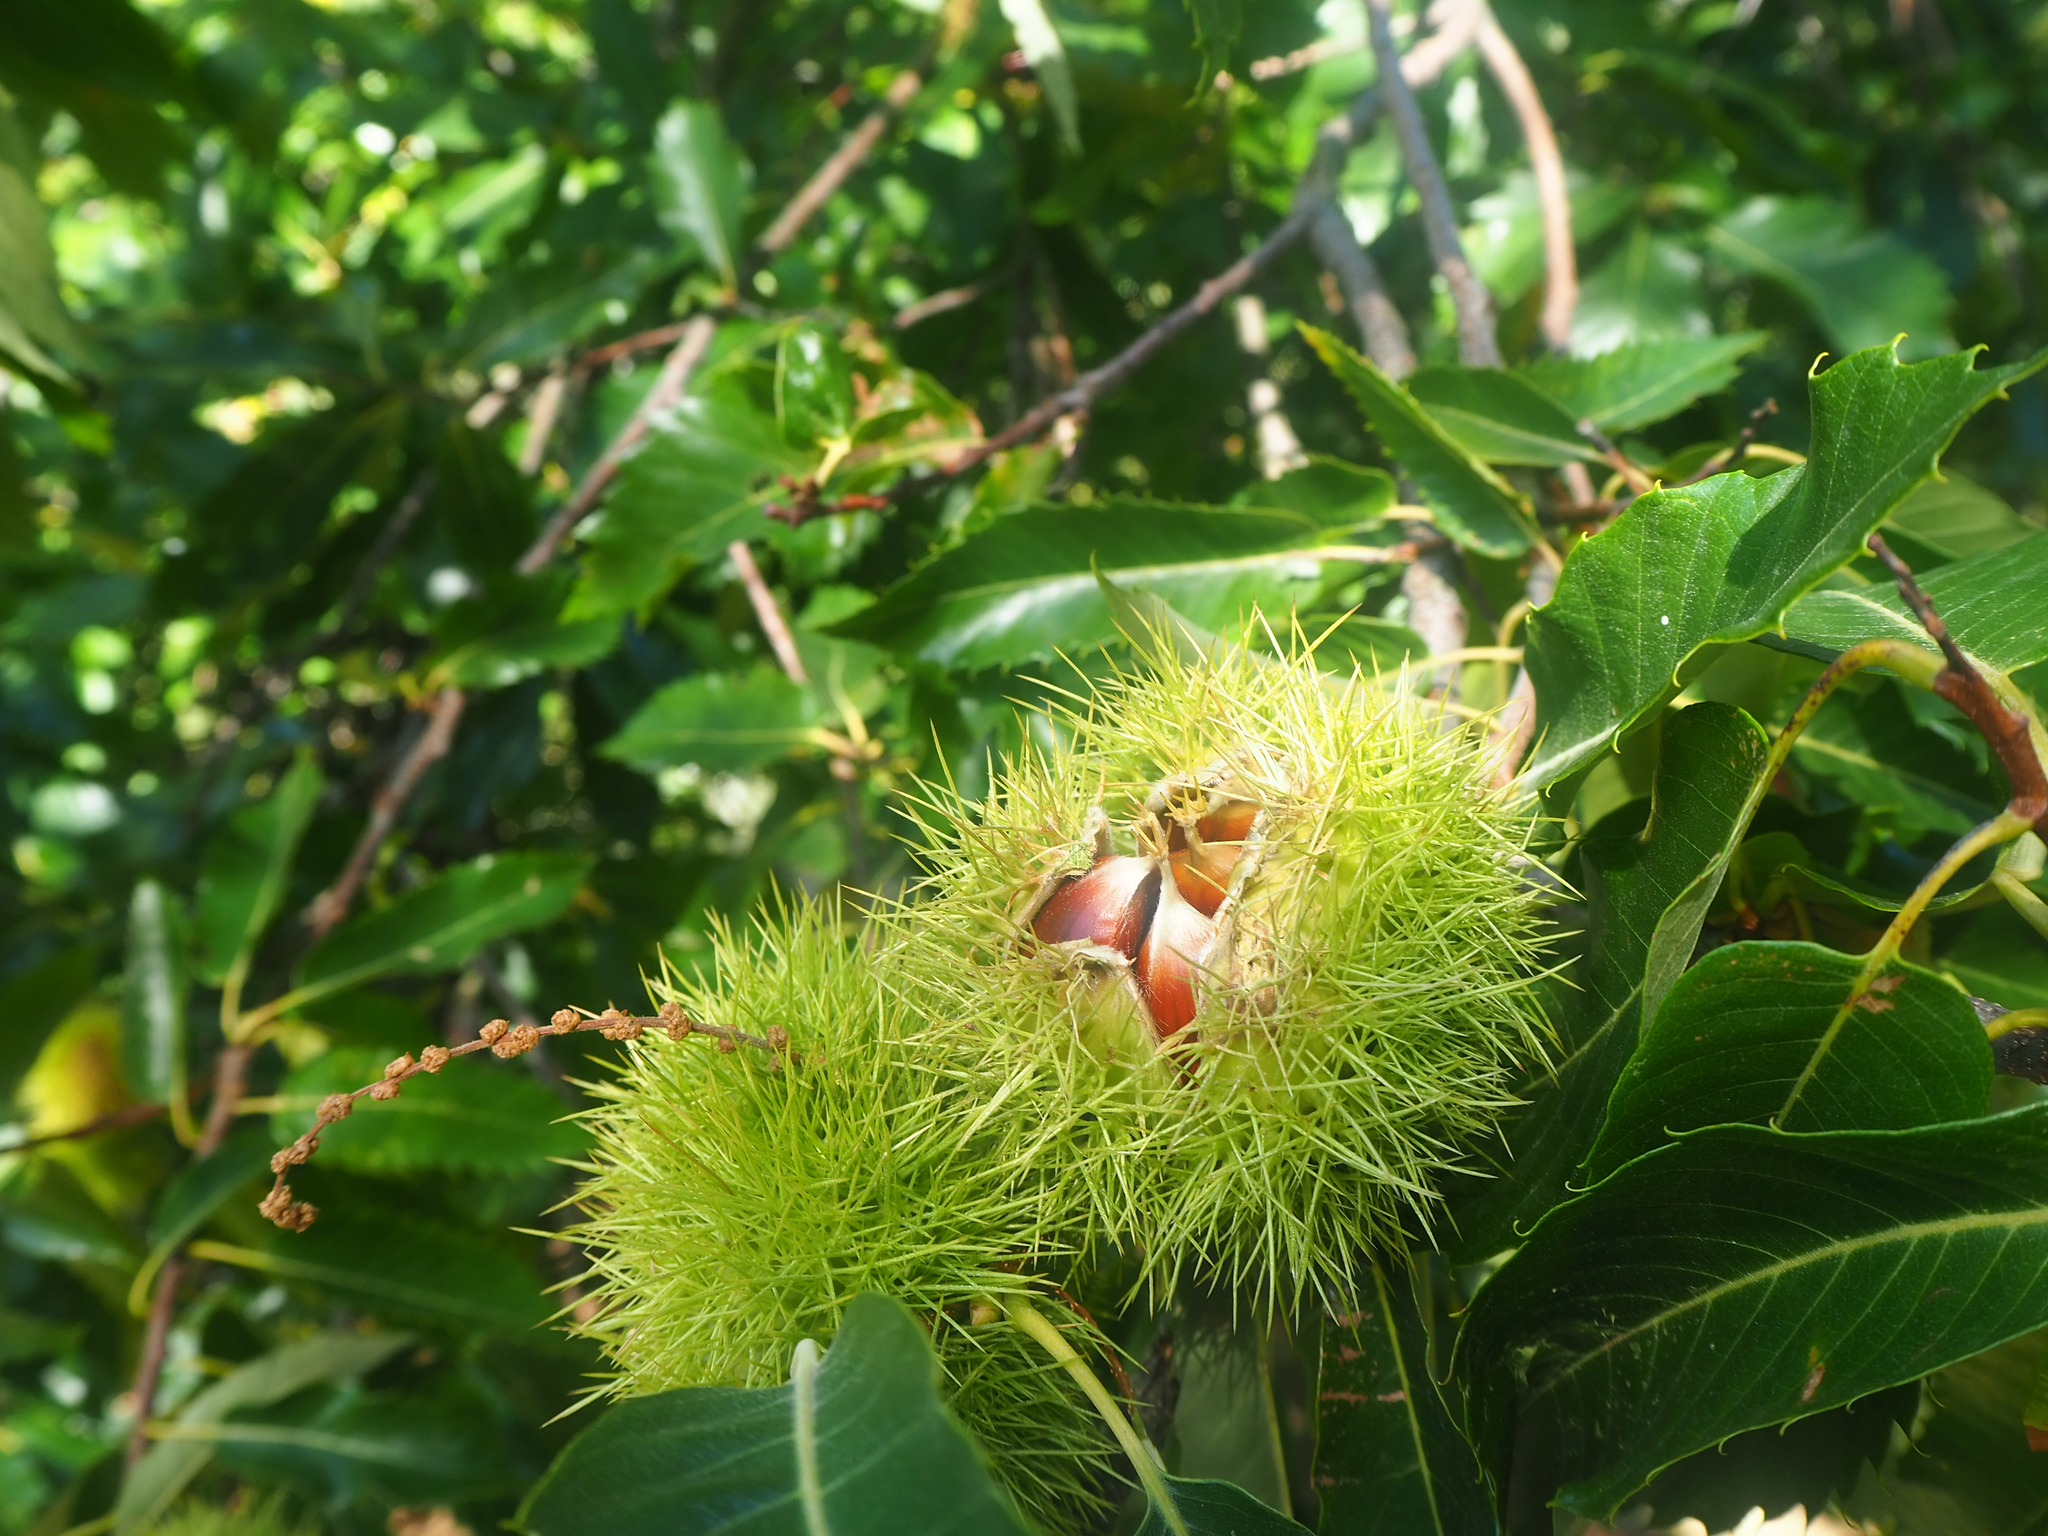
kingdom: Plantae
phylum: Tracheophyta
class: Magnoliopsida
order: Fagales
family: Fagaceae
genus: Castanea
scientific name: Castanea sativa
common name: Sweet chestnut
